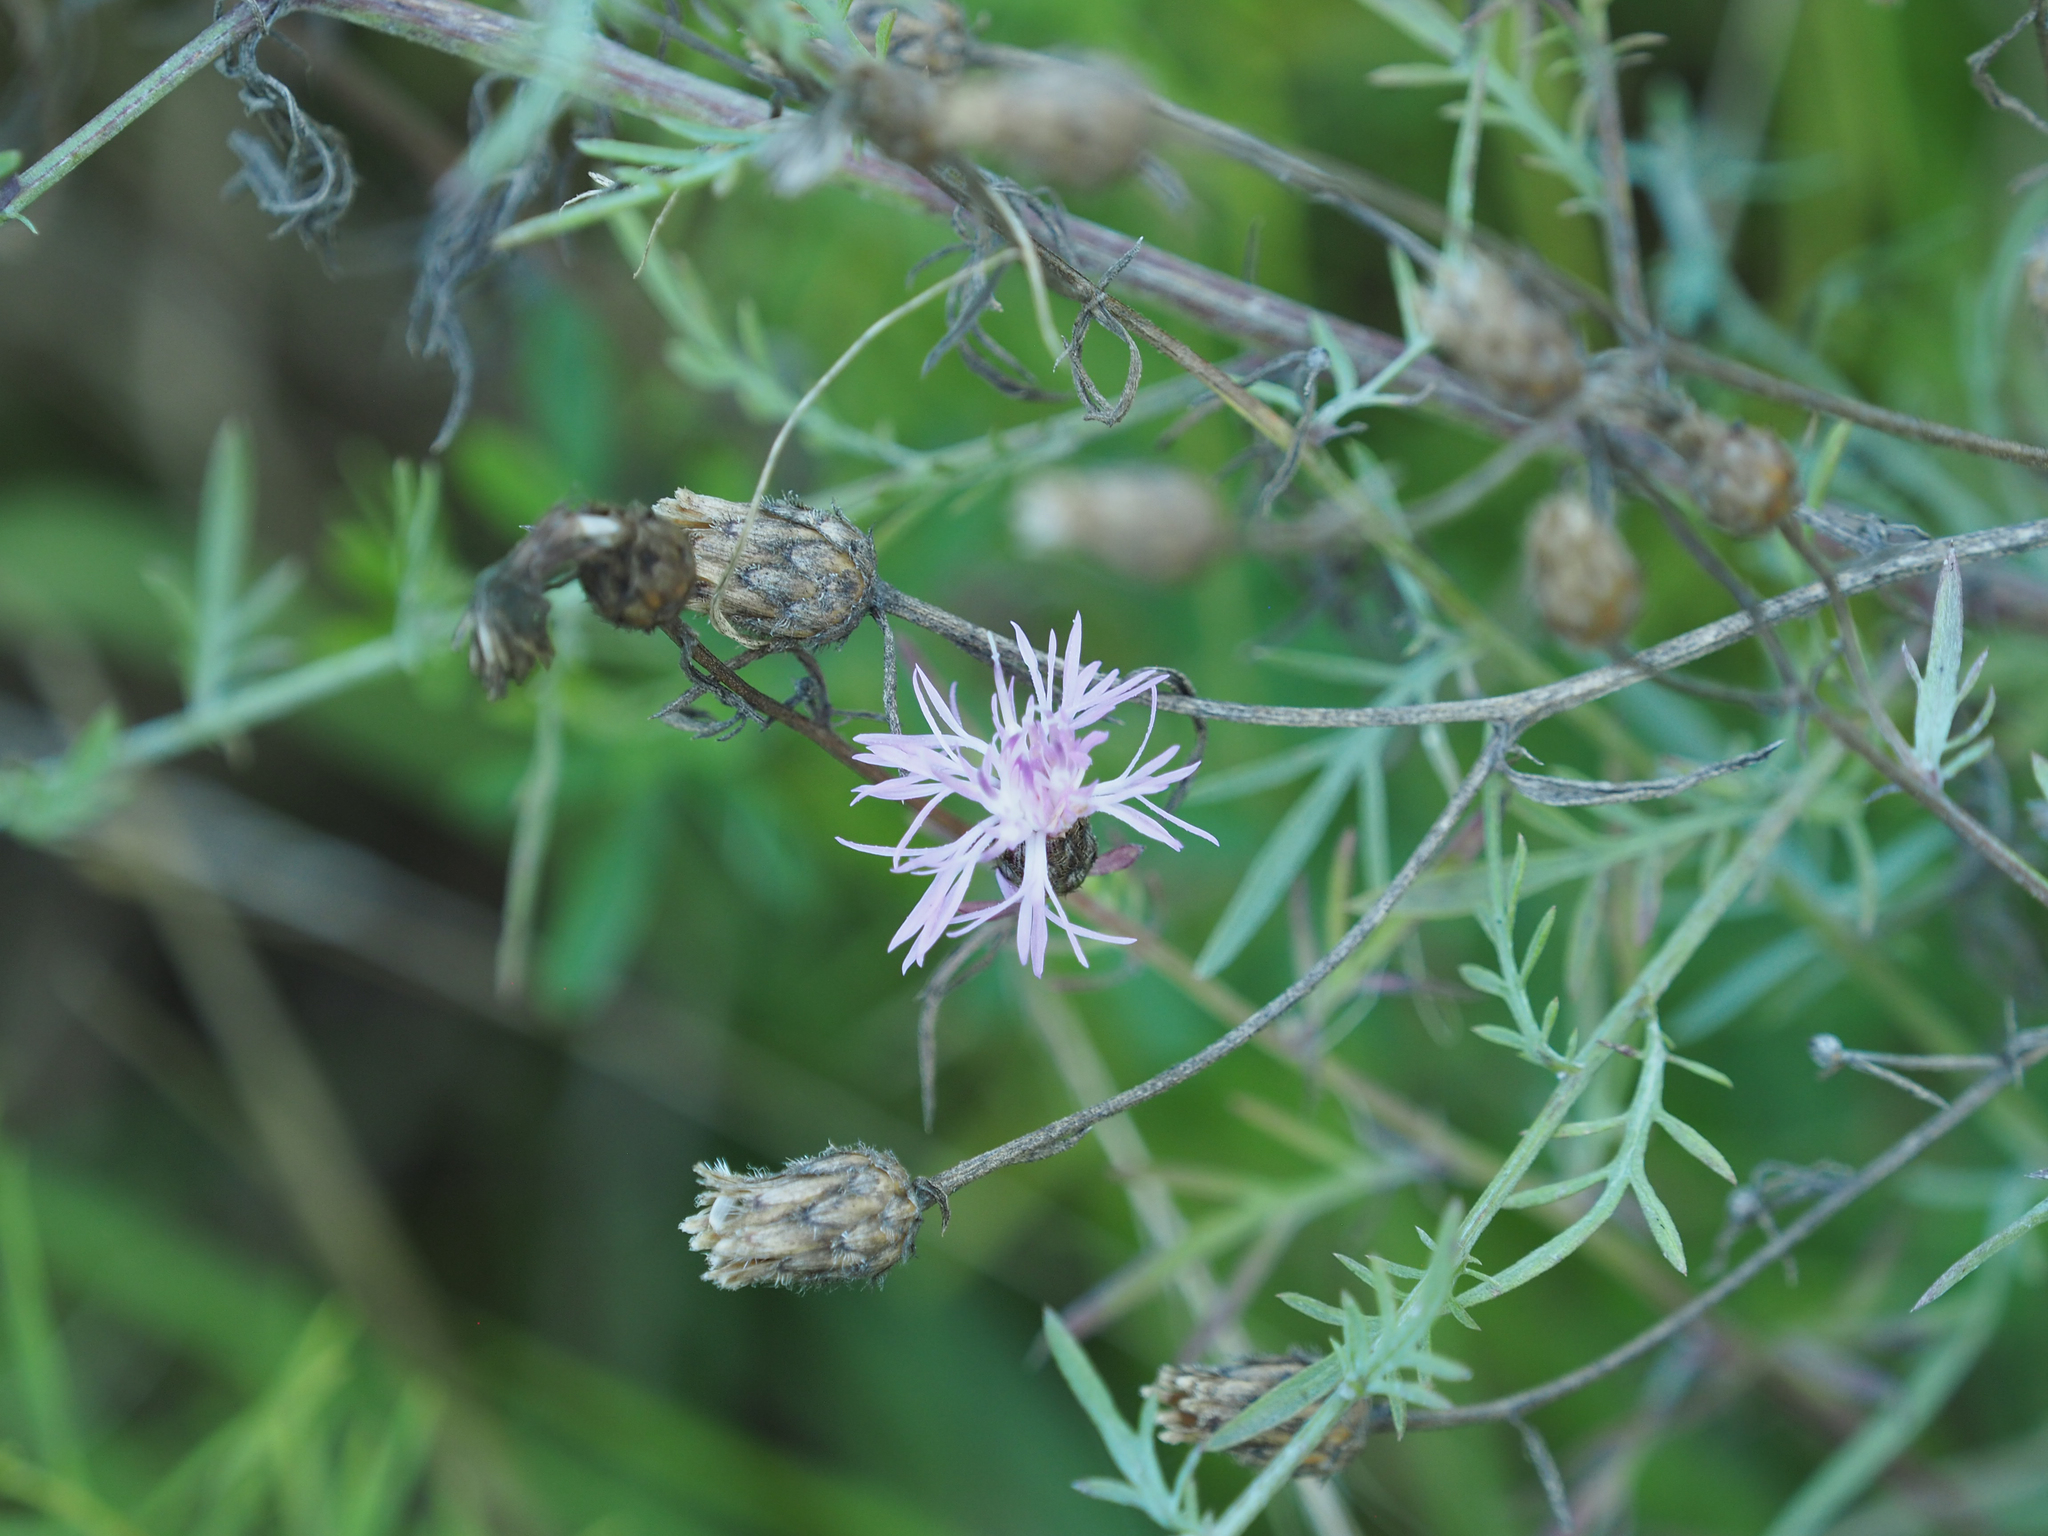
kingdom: Plantae
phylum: Tracheophyta
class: Magnoliopsida
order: Asterales
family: Asteraceae
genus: Centaurea
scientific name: Centaurea stoebe
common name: Spotted knapweed
